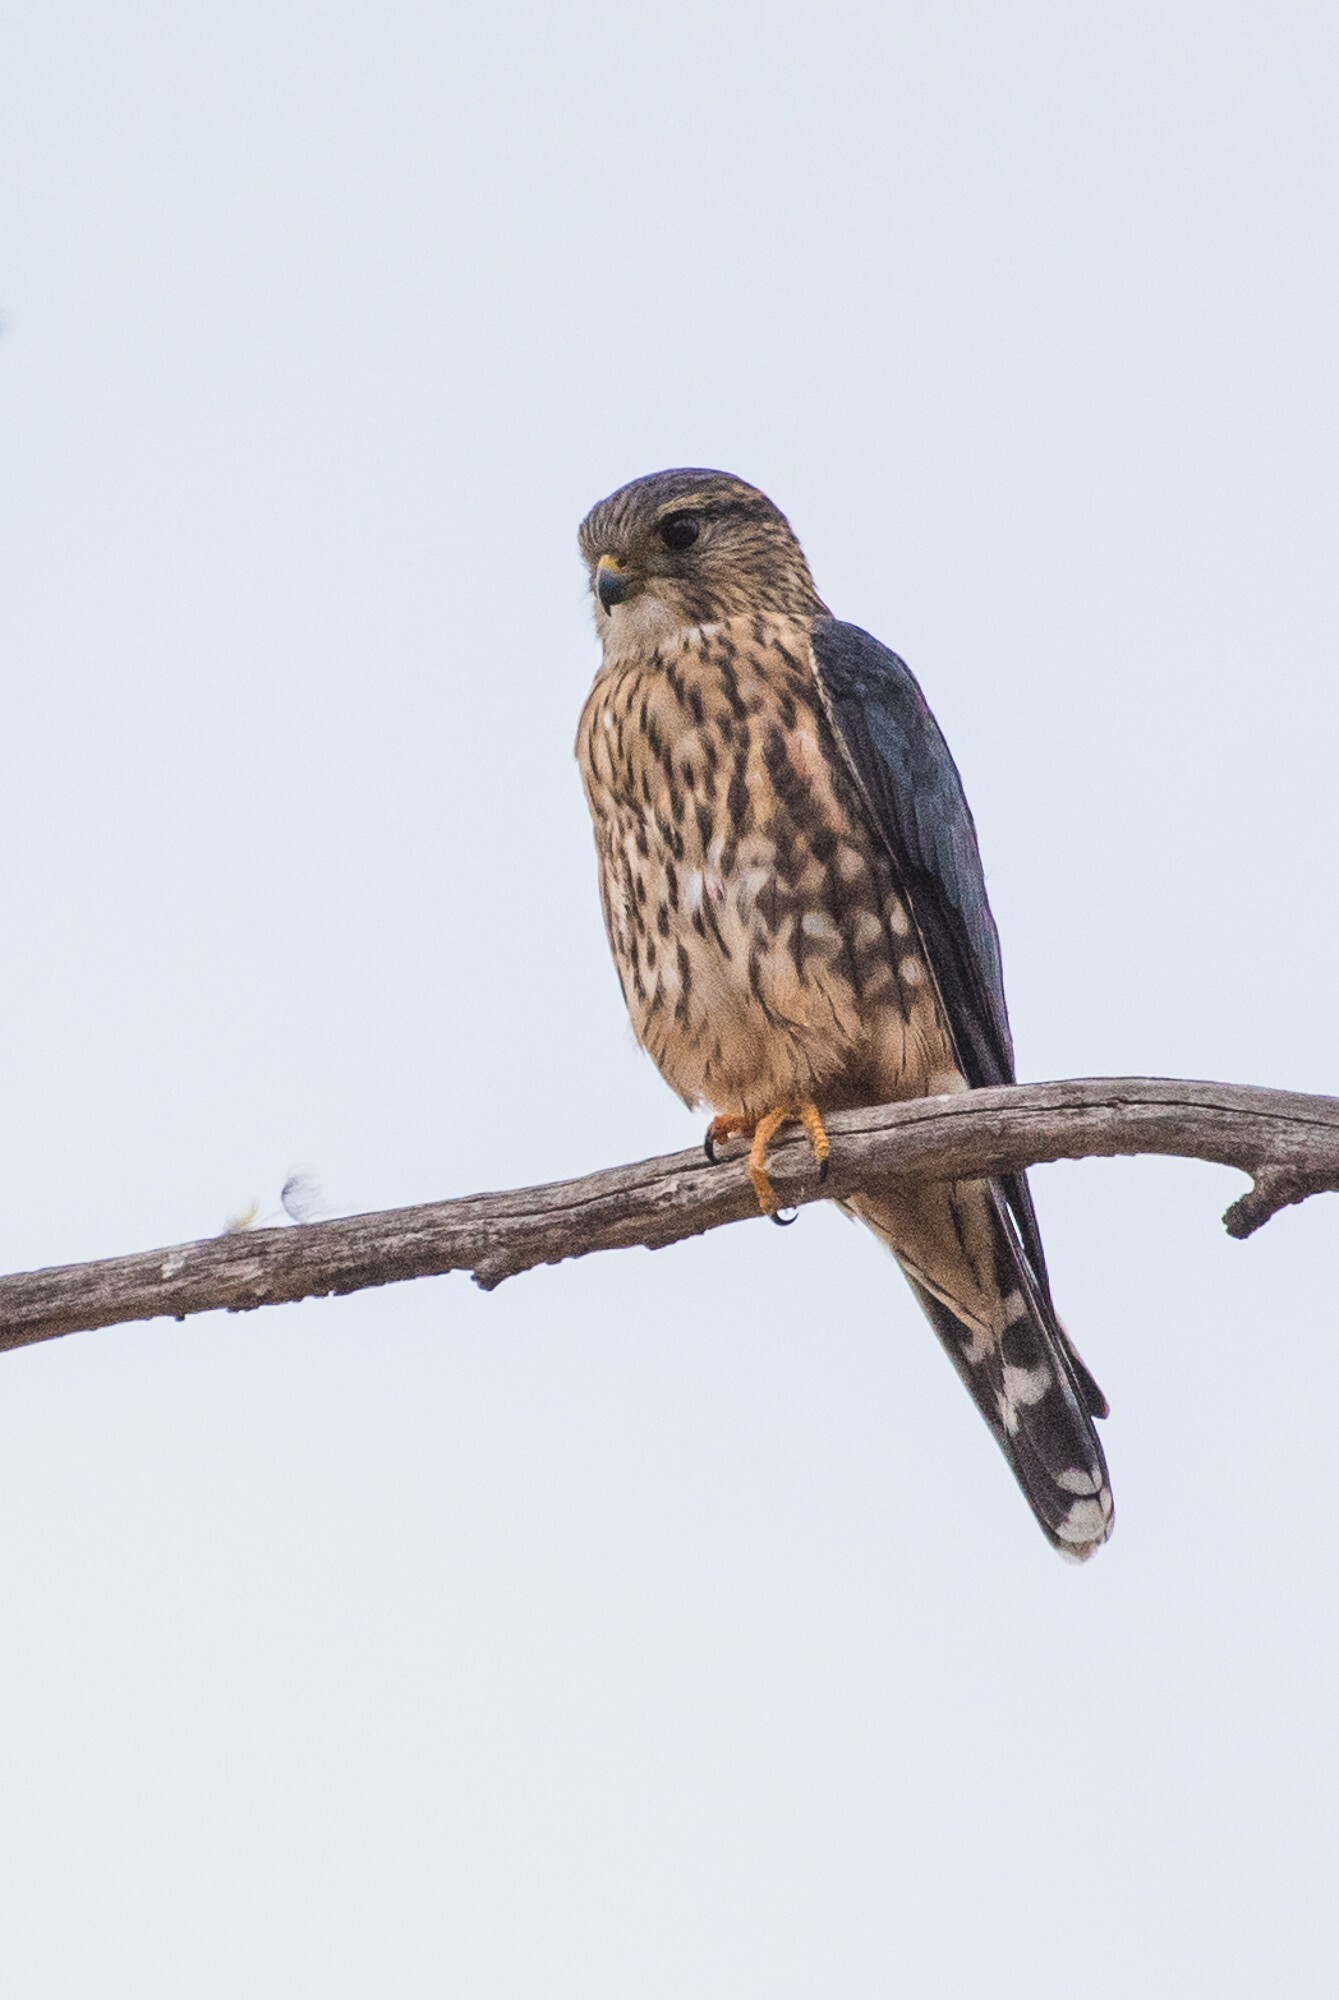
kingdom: Animalia
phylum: Chordata
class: Aves
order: Falconiformes
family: Falconidae
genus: Falco
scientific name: Falco columbarius
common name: Merlin
